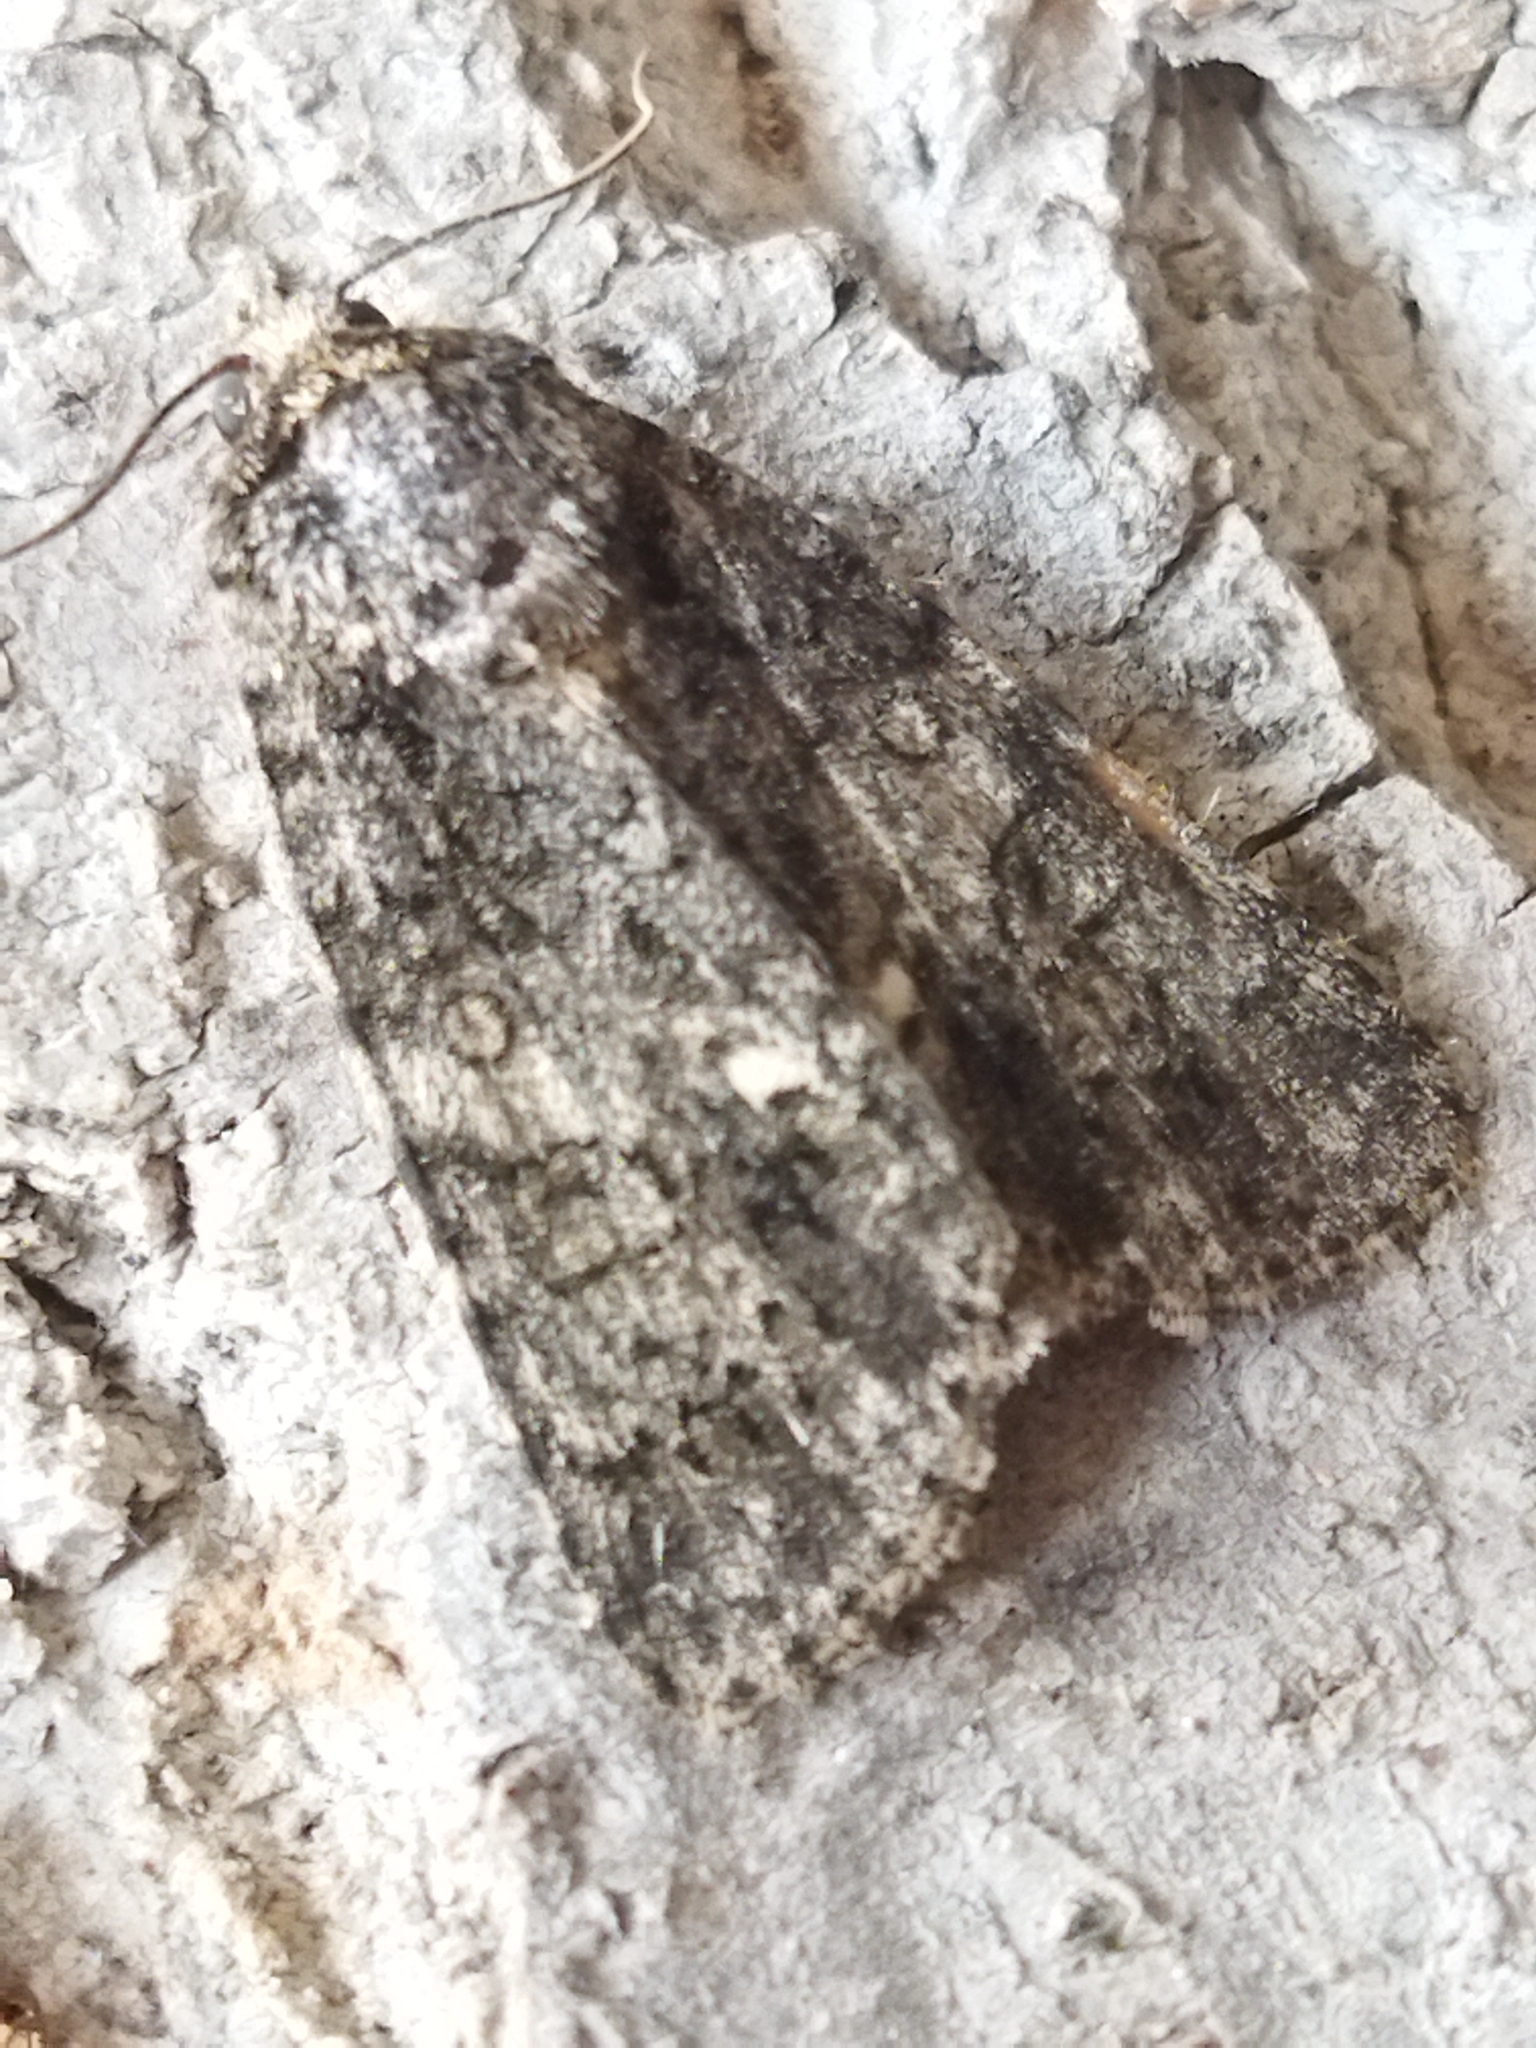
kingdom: Animalia
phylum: Arthropoda
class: Insecta
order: Lepidoptera
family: Noctuidae
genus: Acronicta
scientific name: Acronicta rumicis
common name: Knot grass
